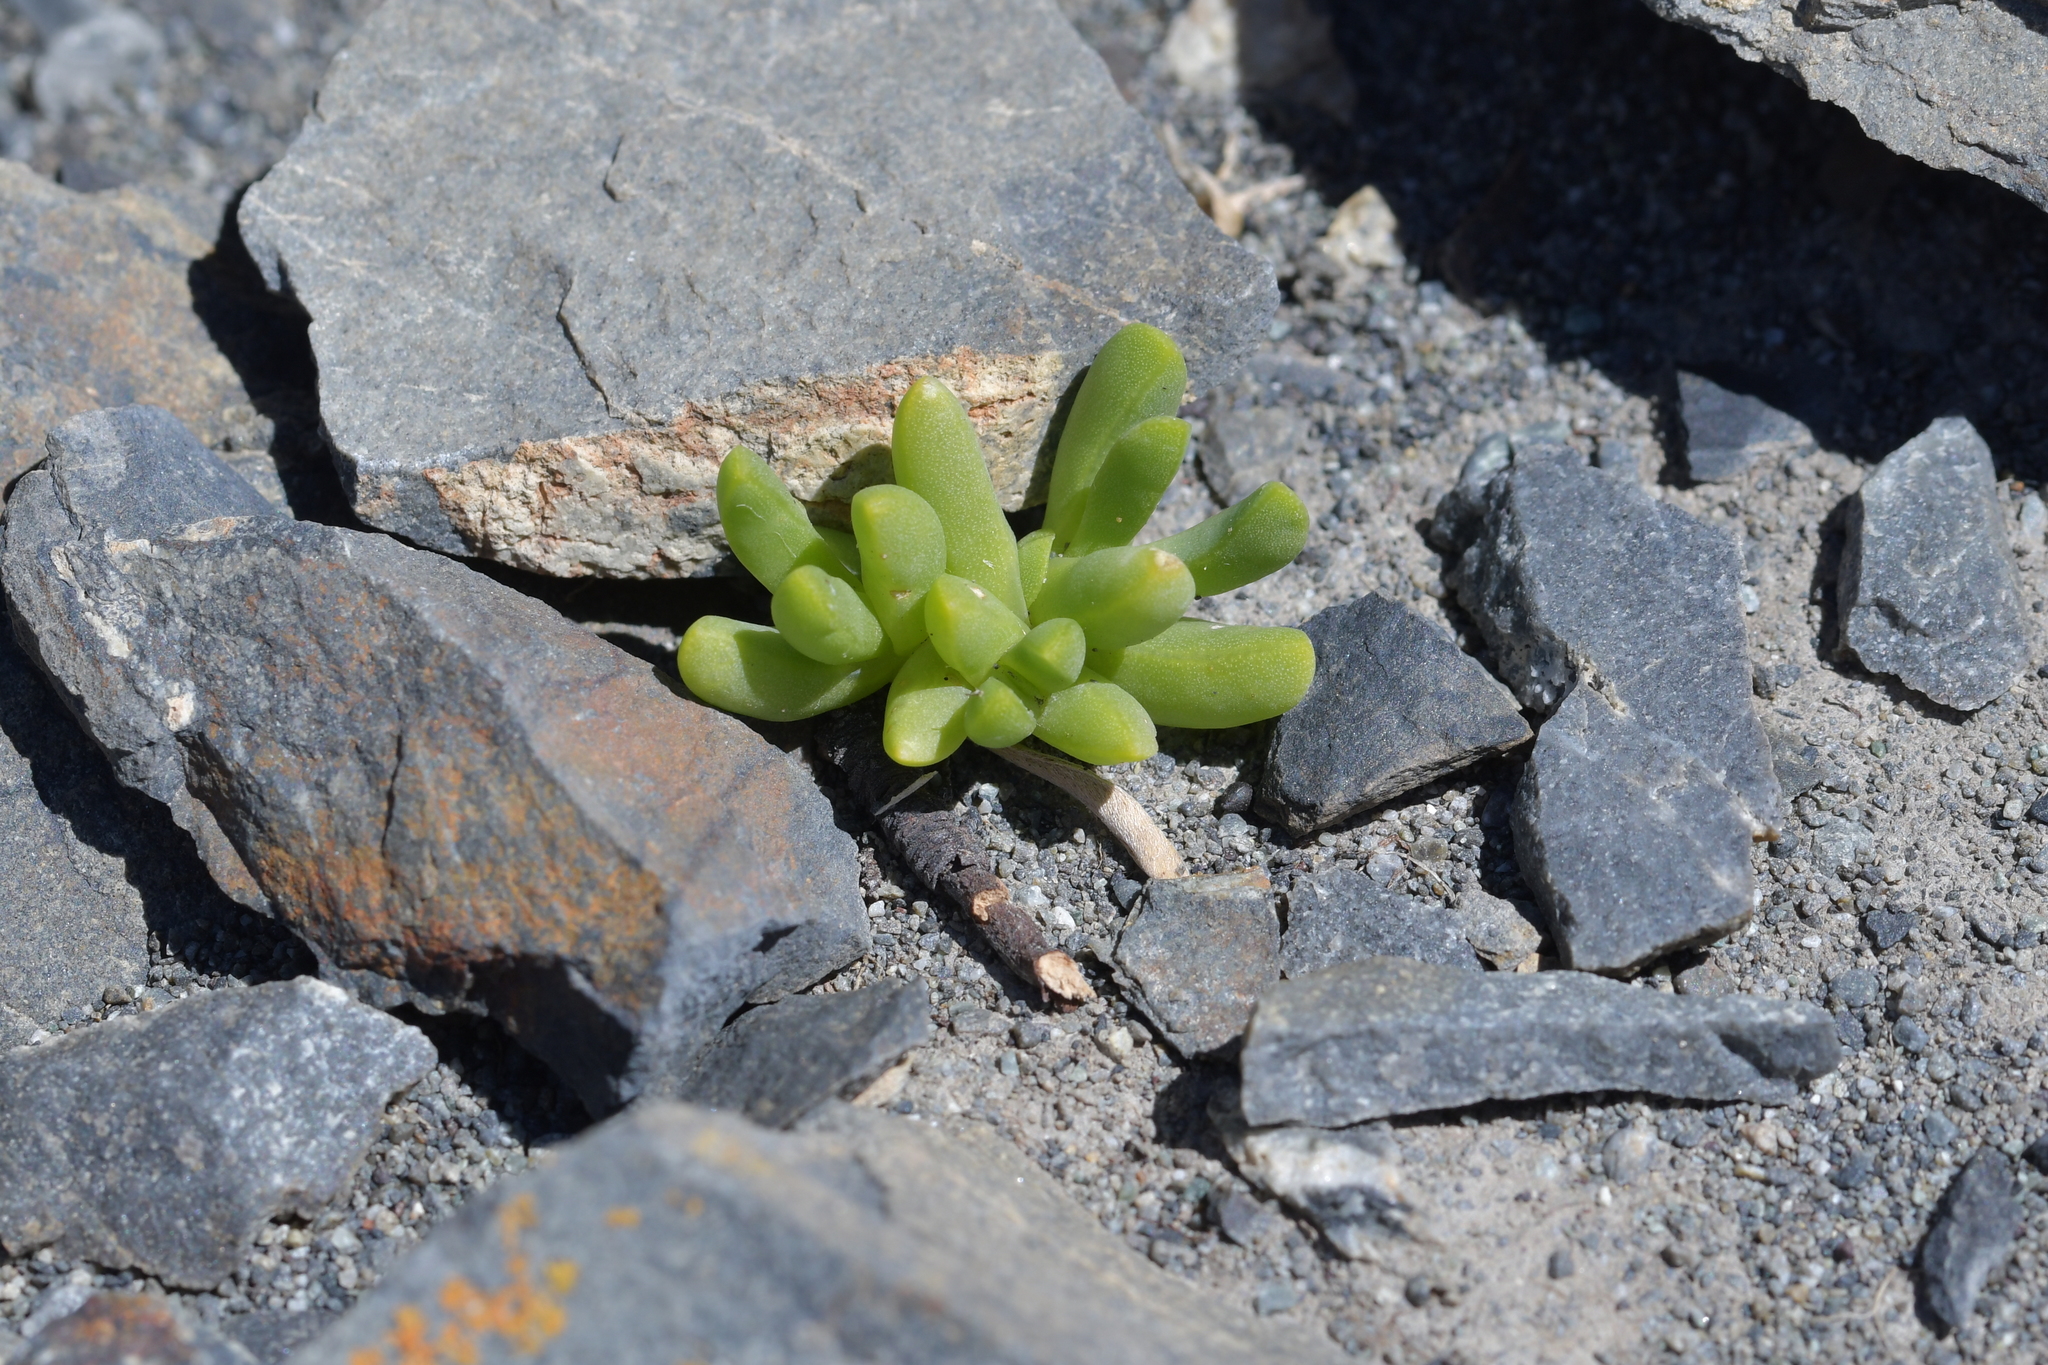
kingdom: Plantae
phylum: Tracheophyta
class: Magnoliopsida
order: Caryophyllales
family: Aizoaceae
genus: Disphyma
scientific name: Disphyma australe
